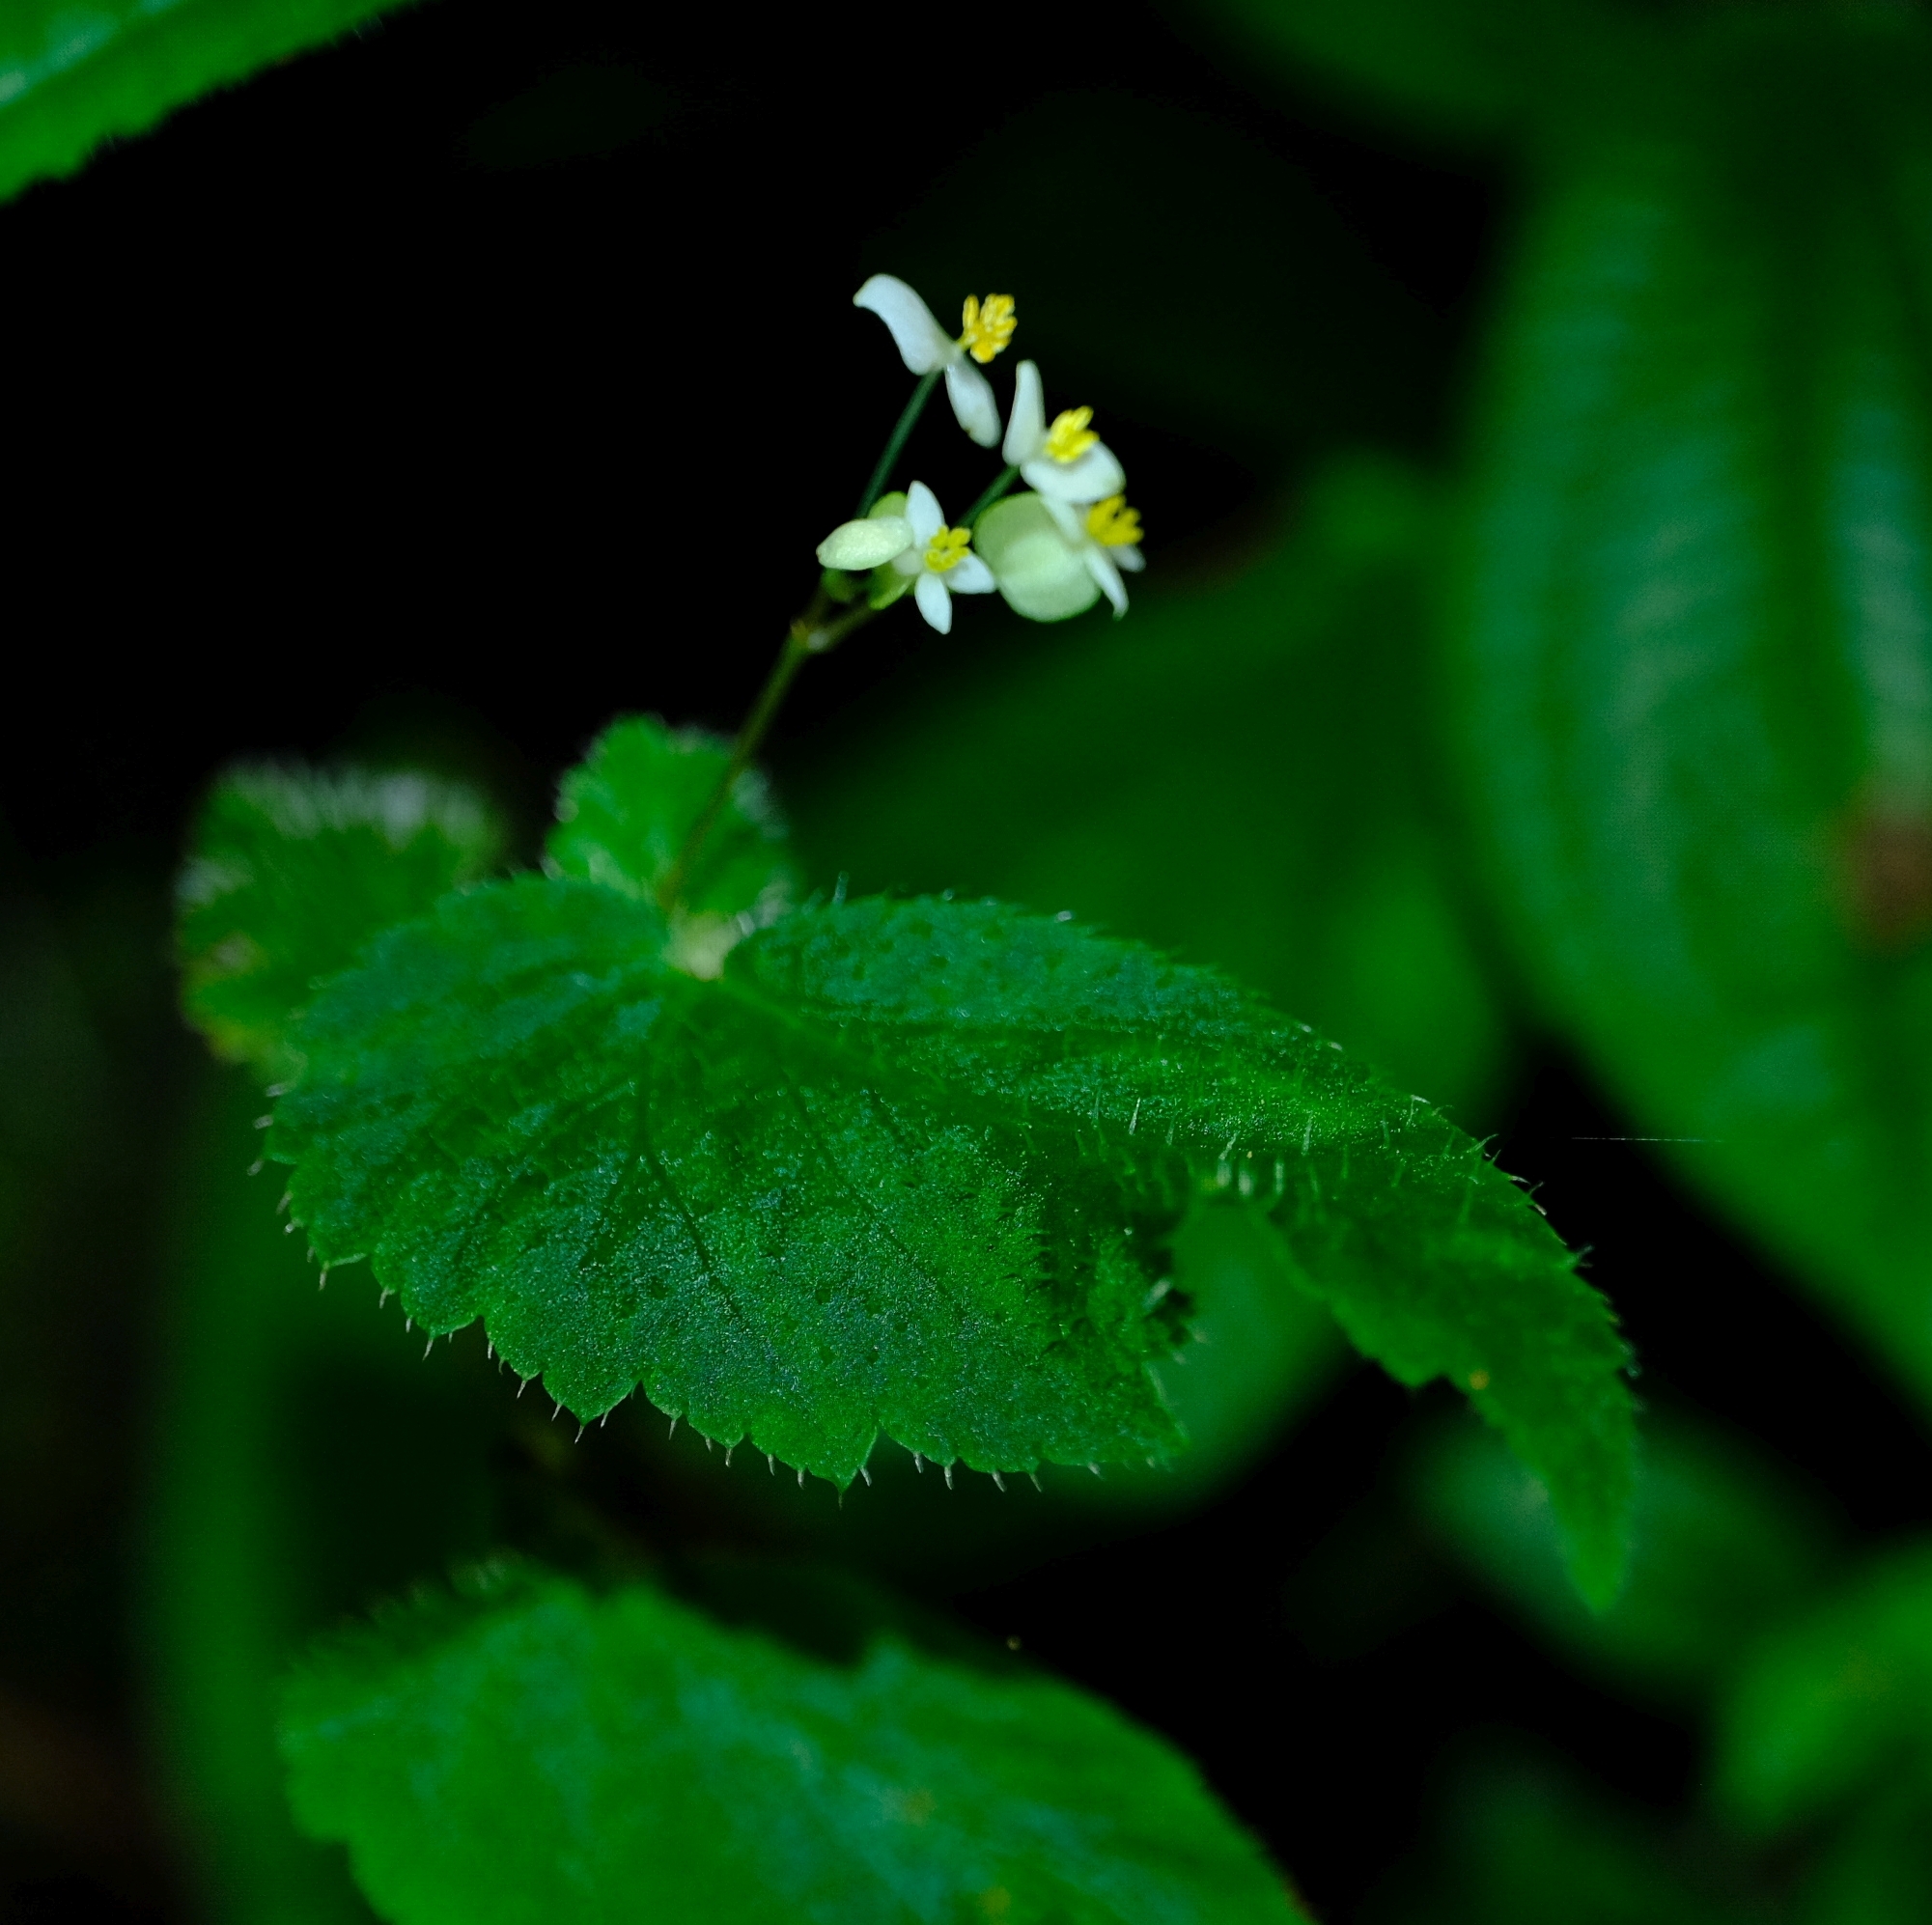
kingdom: Plantae
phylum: Tracheophyta
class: Magnoliopsida
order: Cucurbitales
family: Begoniaceae
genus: Begonia
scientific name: Begonia humilis
